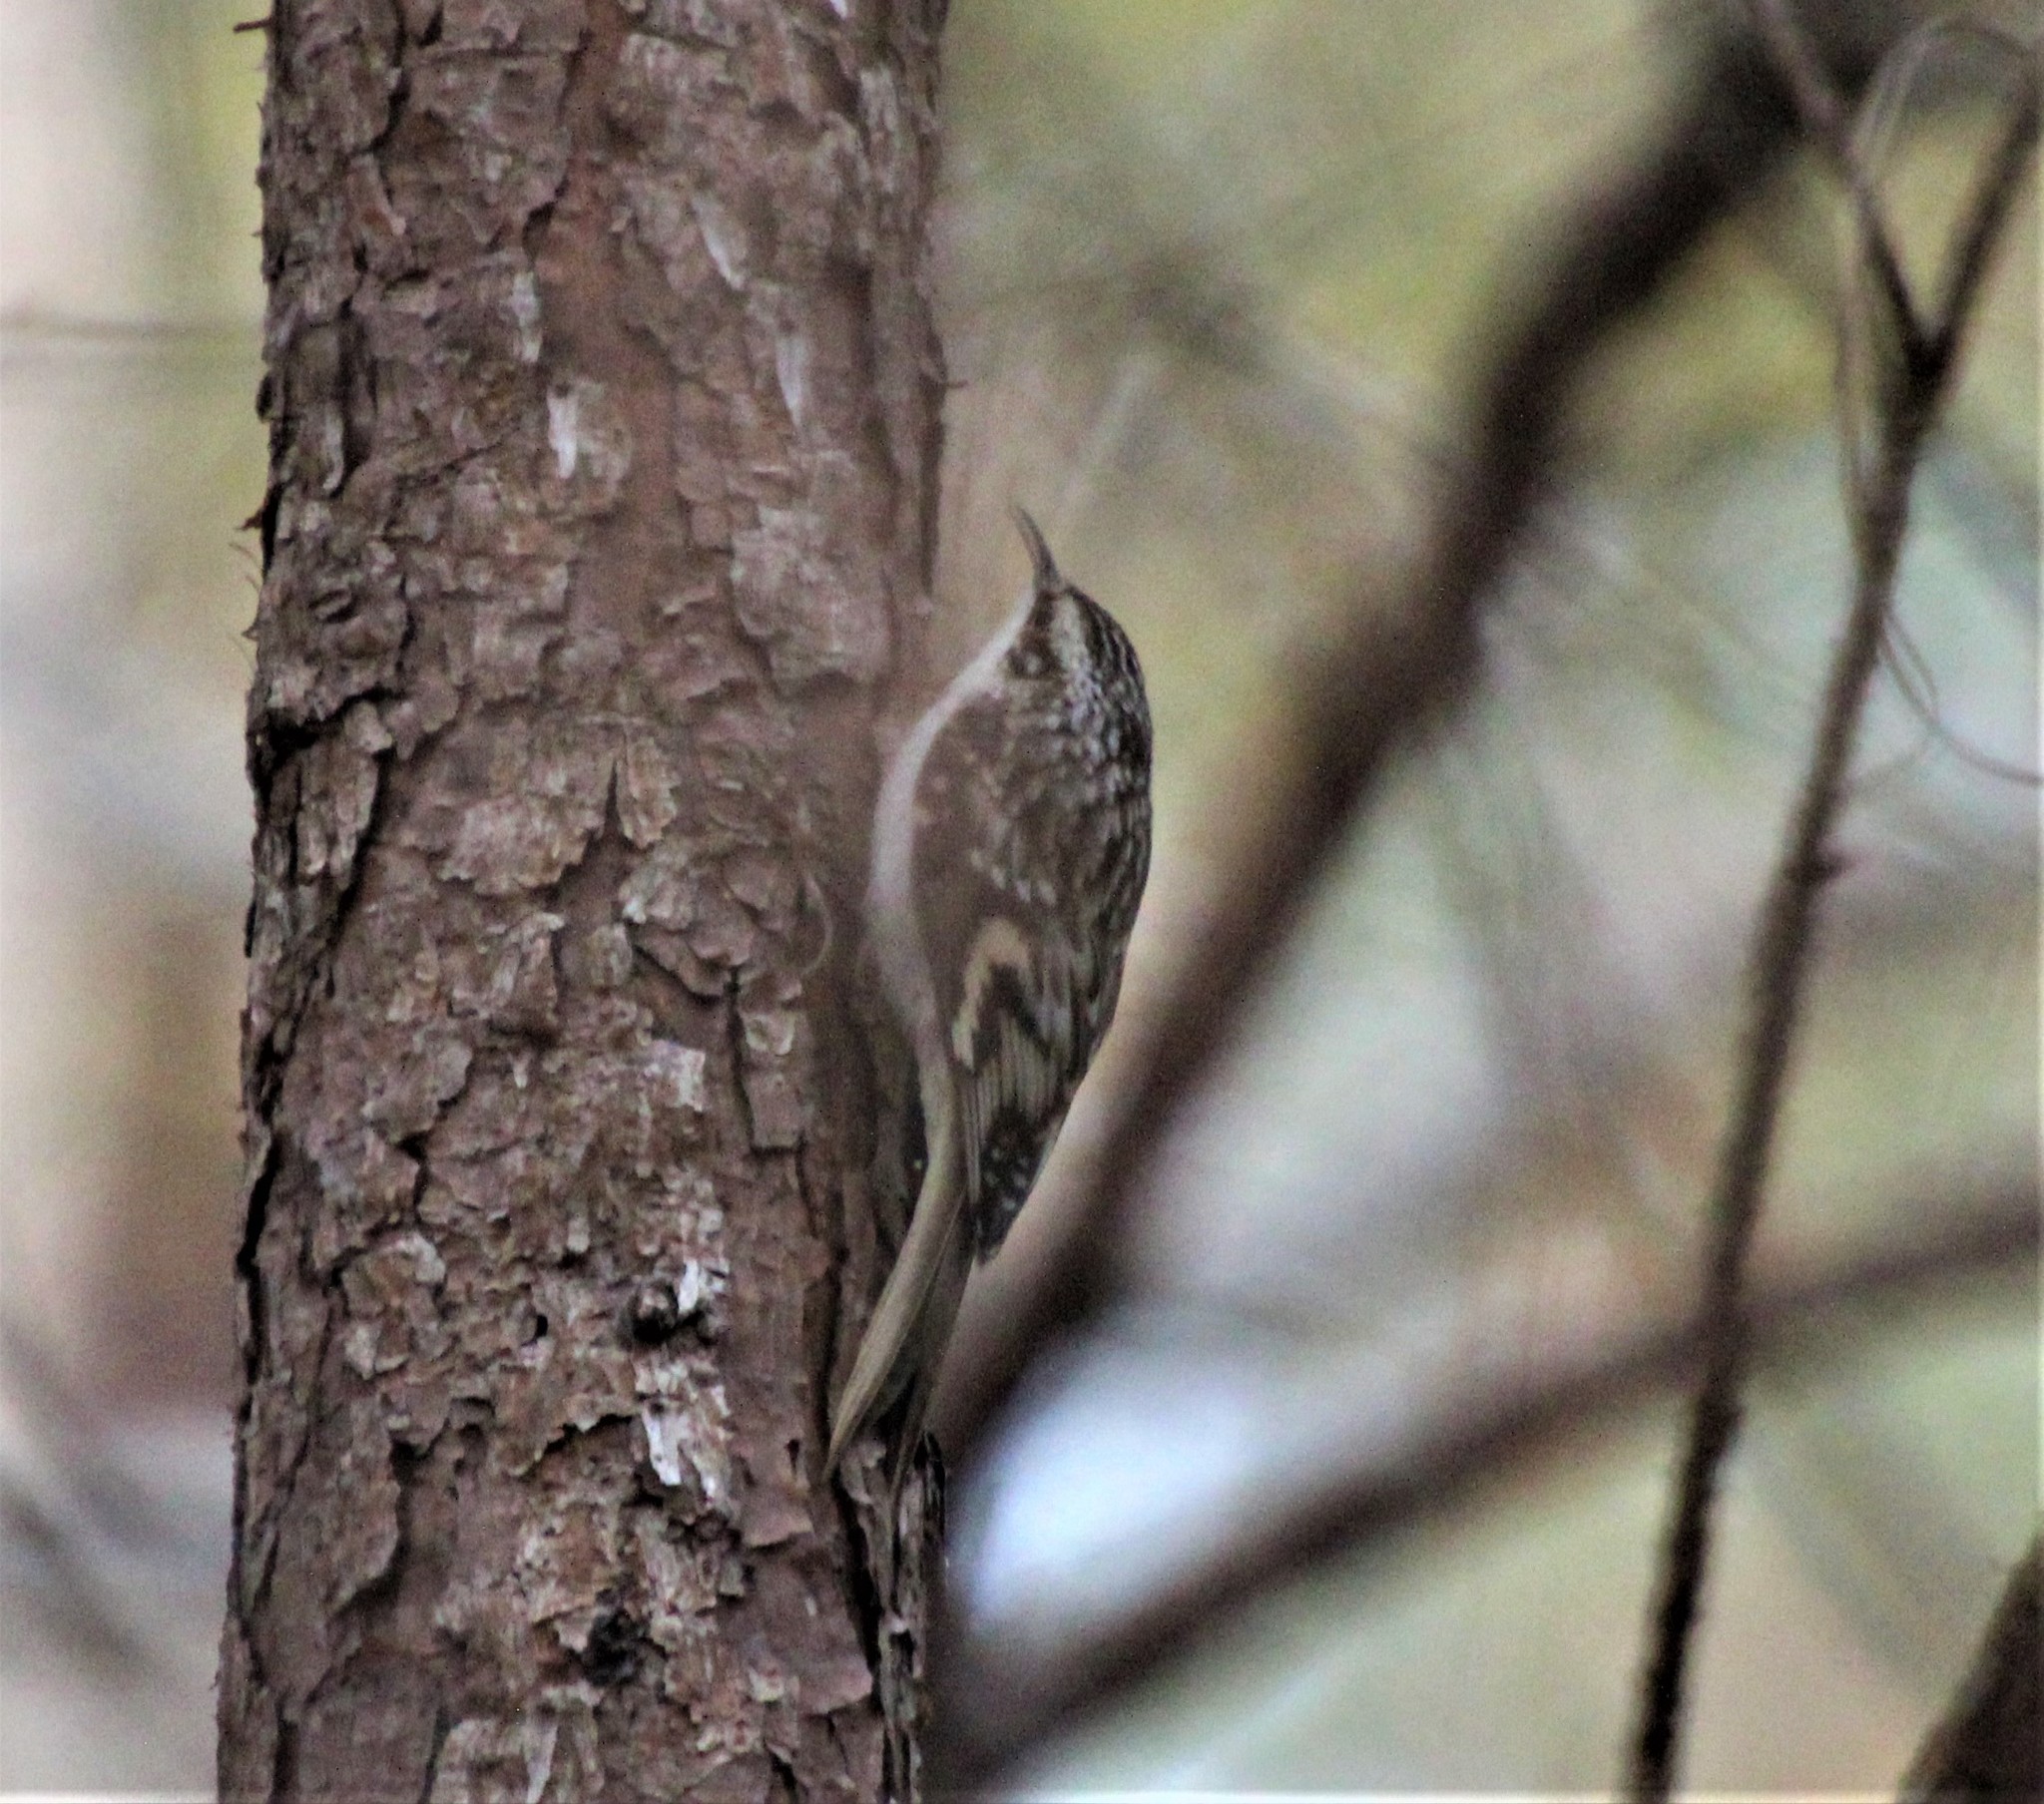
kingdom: Animalia
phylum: Chordata
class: Aves
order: Passeriformes
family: Certhiidae
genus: Certhia
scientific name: Certhia americana
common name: Brown creeper
